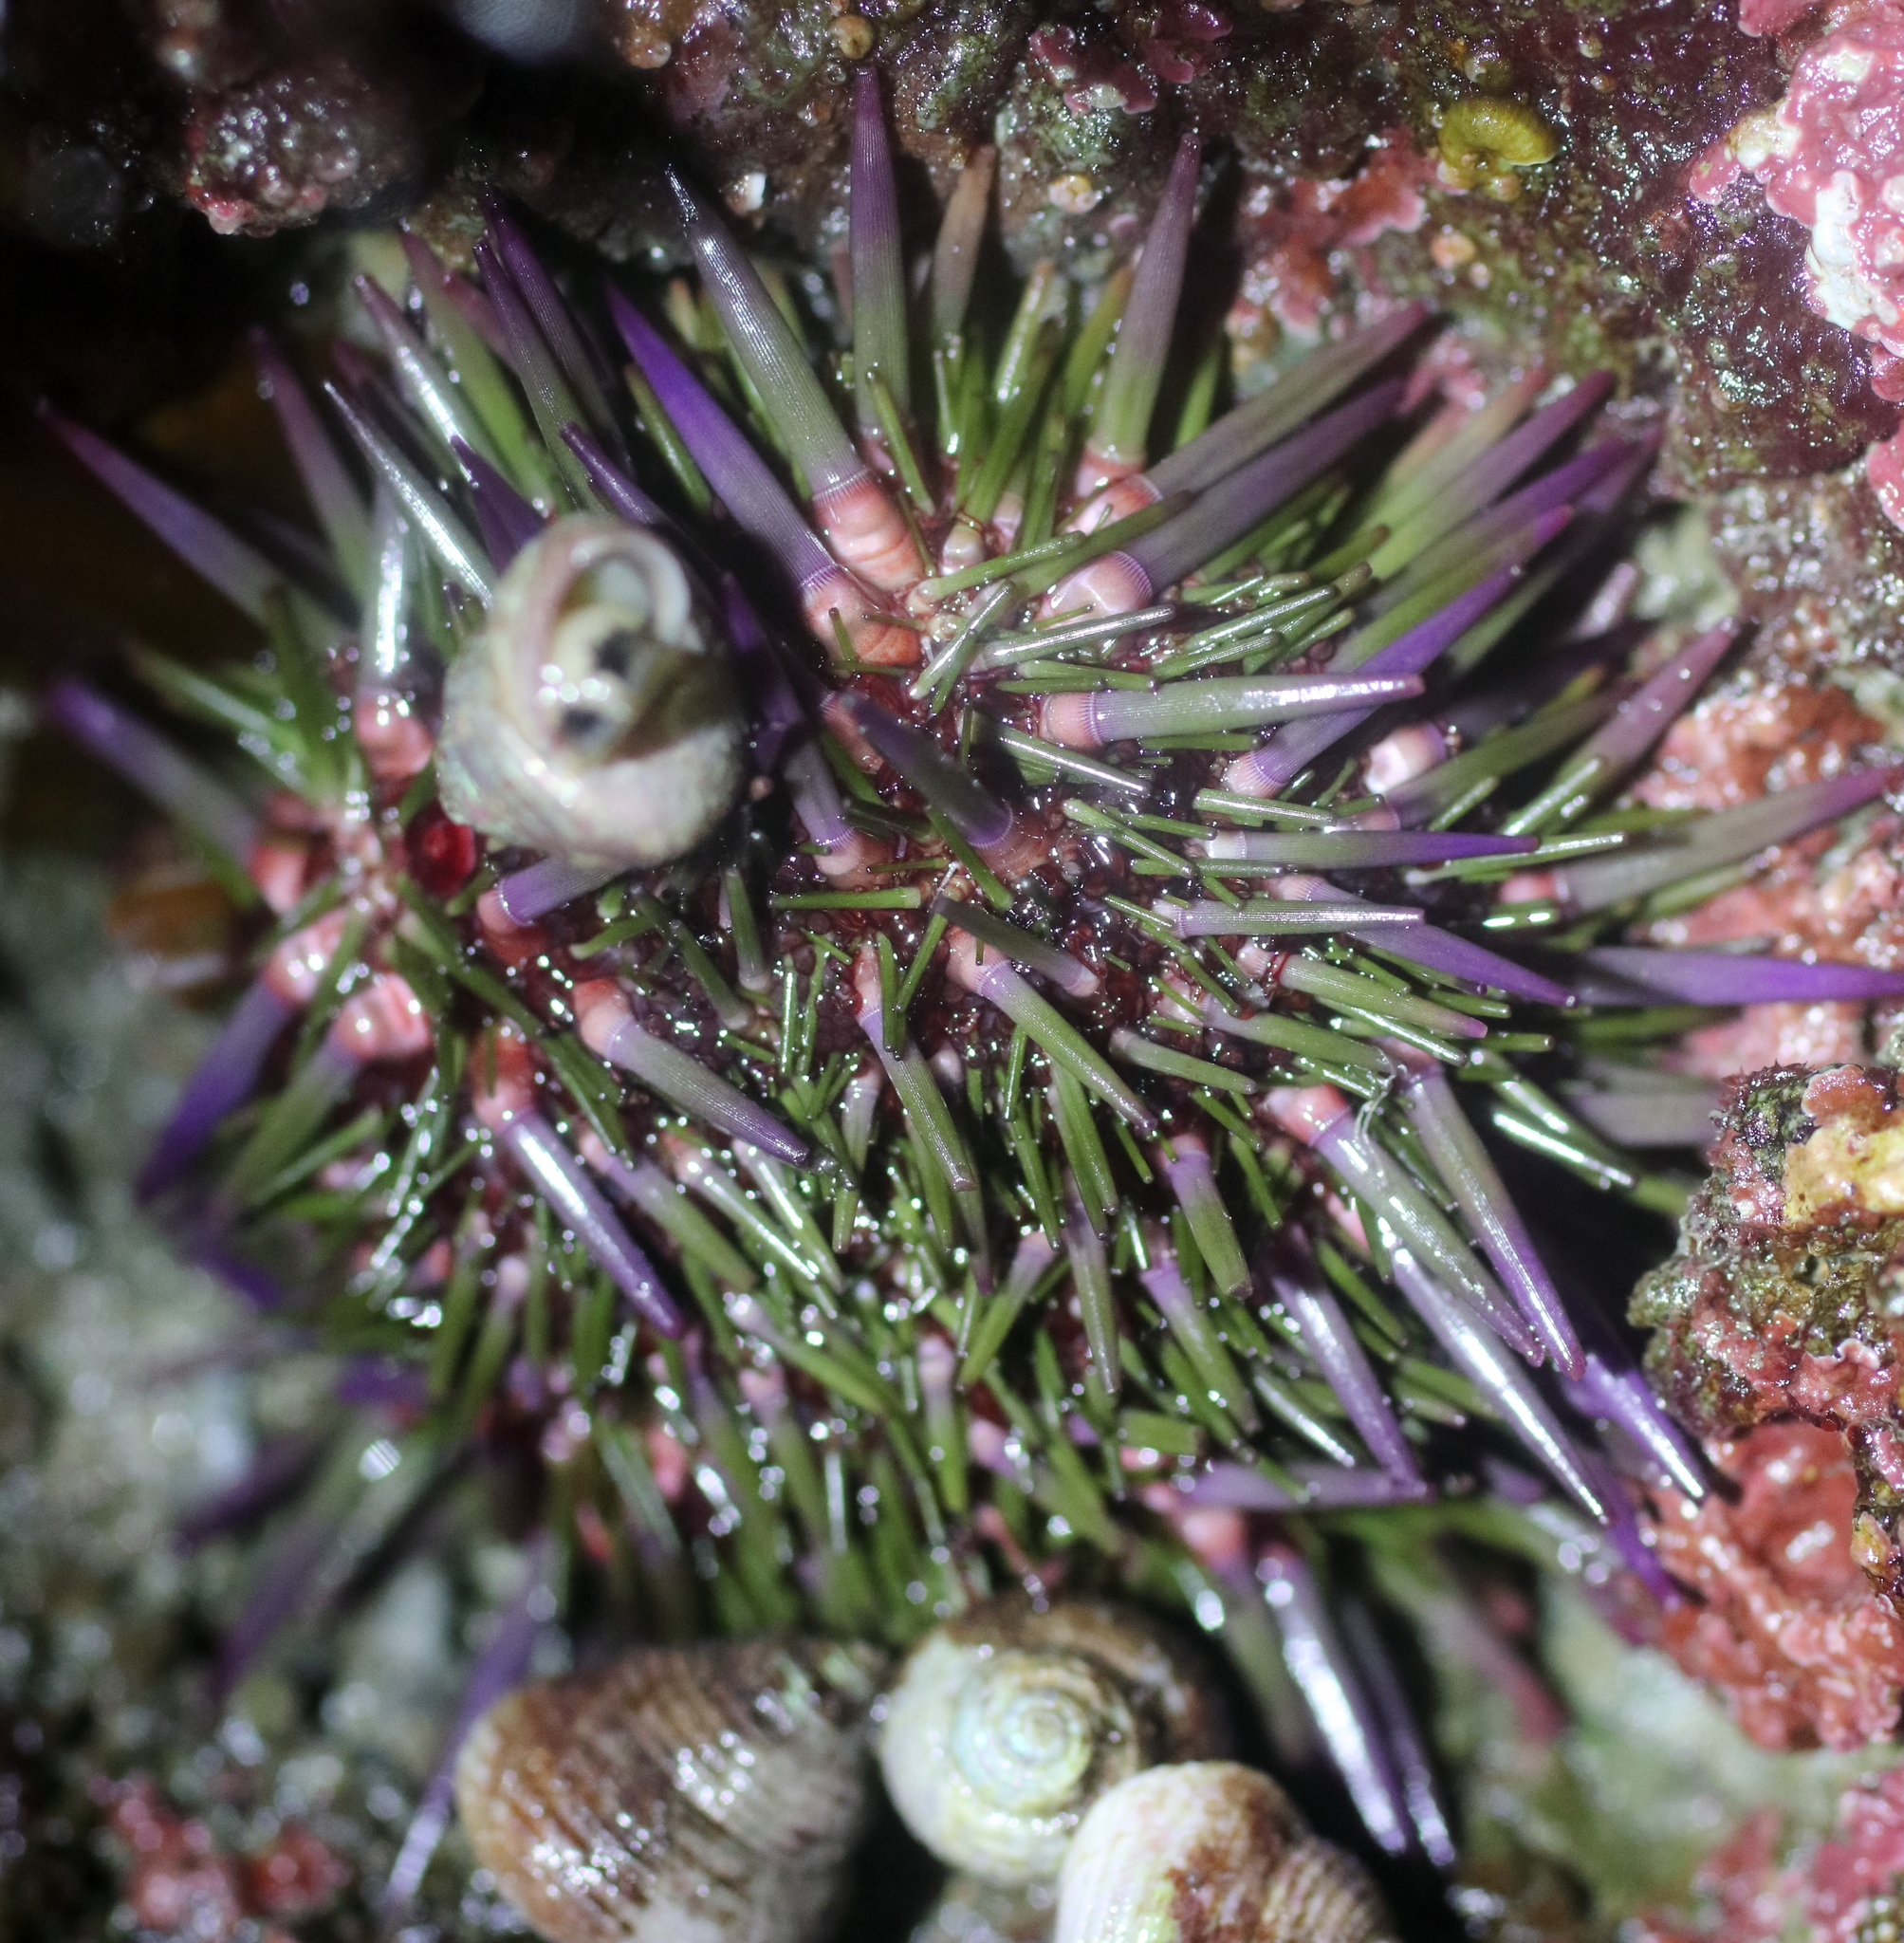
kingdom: Animalia
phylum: Echinodermata
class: Echinoidea
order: Camarodonta
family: Strongylocentrotidae
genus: Strongylocentrotus
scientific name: Strongylocentrotus purpuratus
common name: Purple sea urchin
